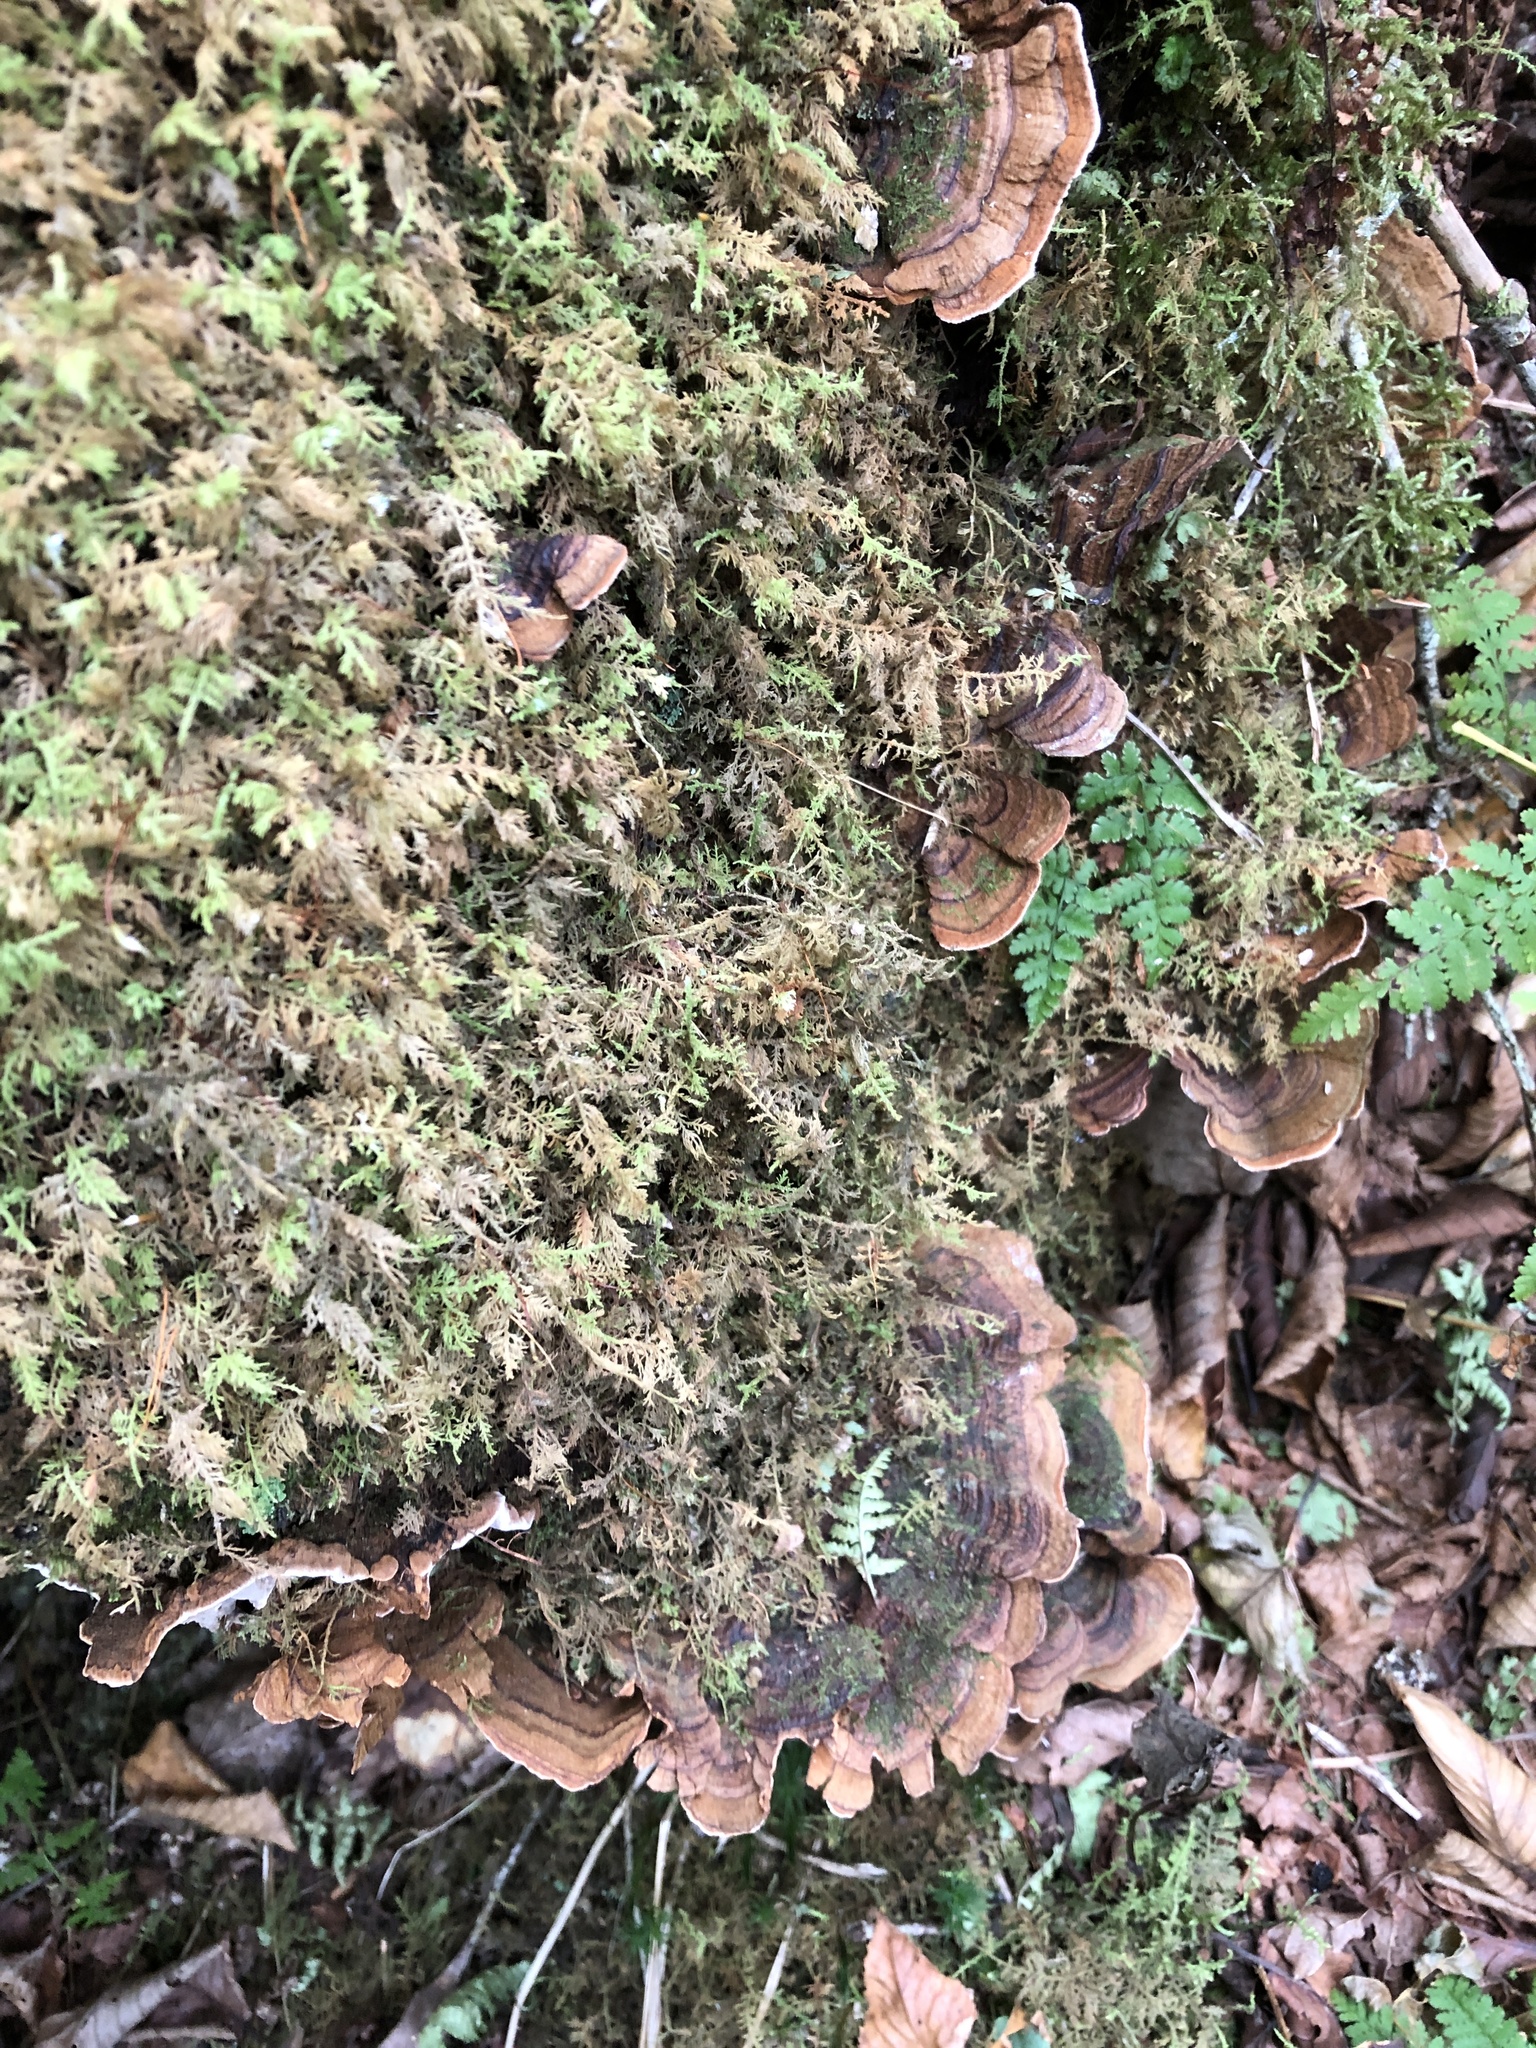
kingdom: Fungi
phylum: Basidiomycota
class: Agaricomycetes
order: Russulales
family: Stereaceae
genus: Xylobolus
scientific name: Xylobolus subpileatus
